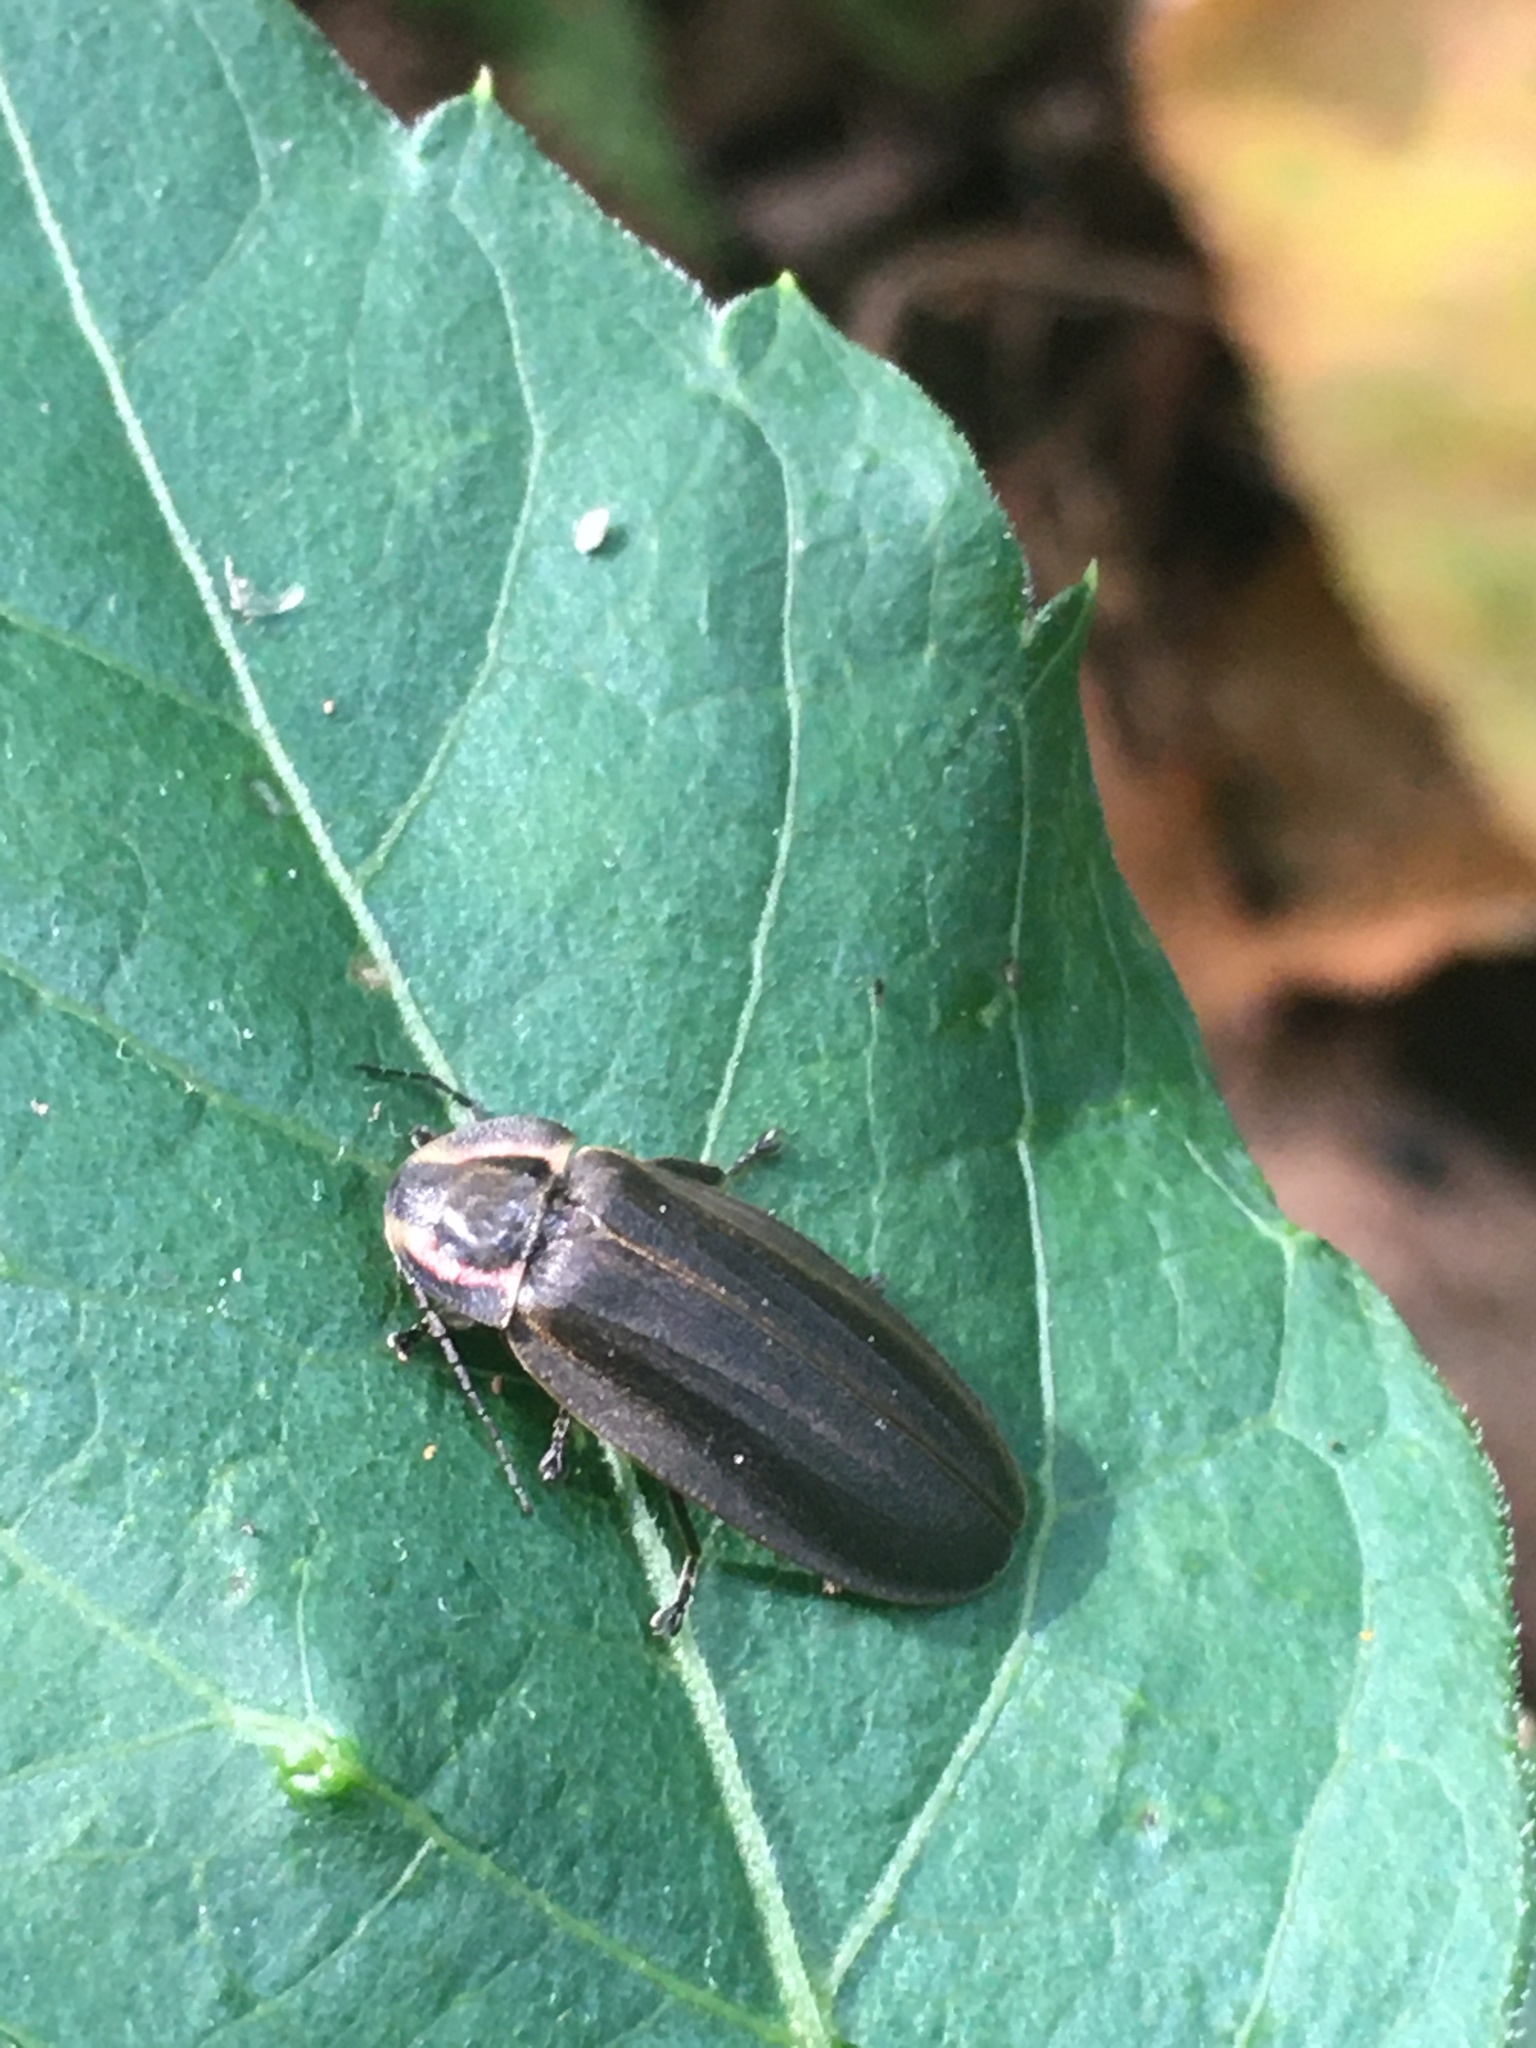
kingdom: Animalia
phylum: Arthropoda
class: Insecta
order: Coleoptera
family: Lampyridae
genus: Photinus
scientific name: Photinus corrusca
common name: Winter firefly
